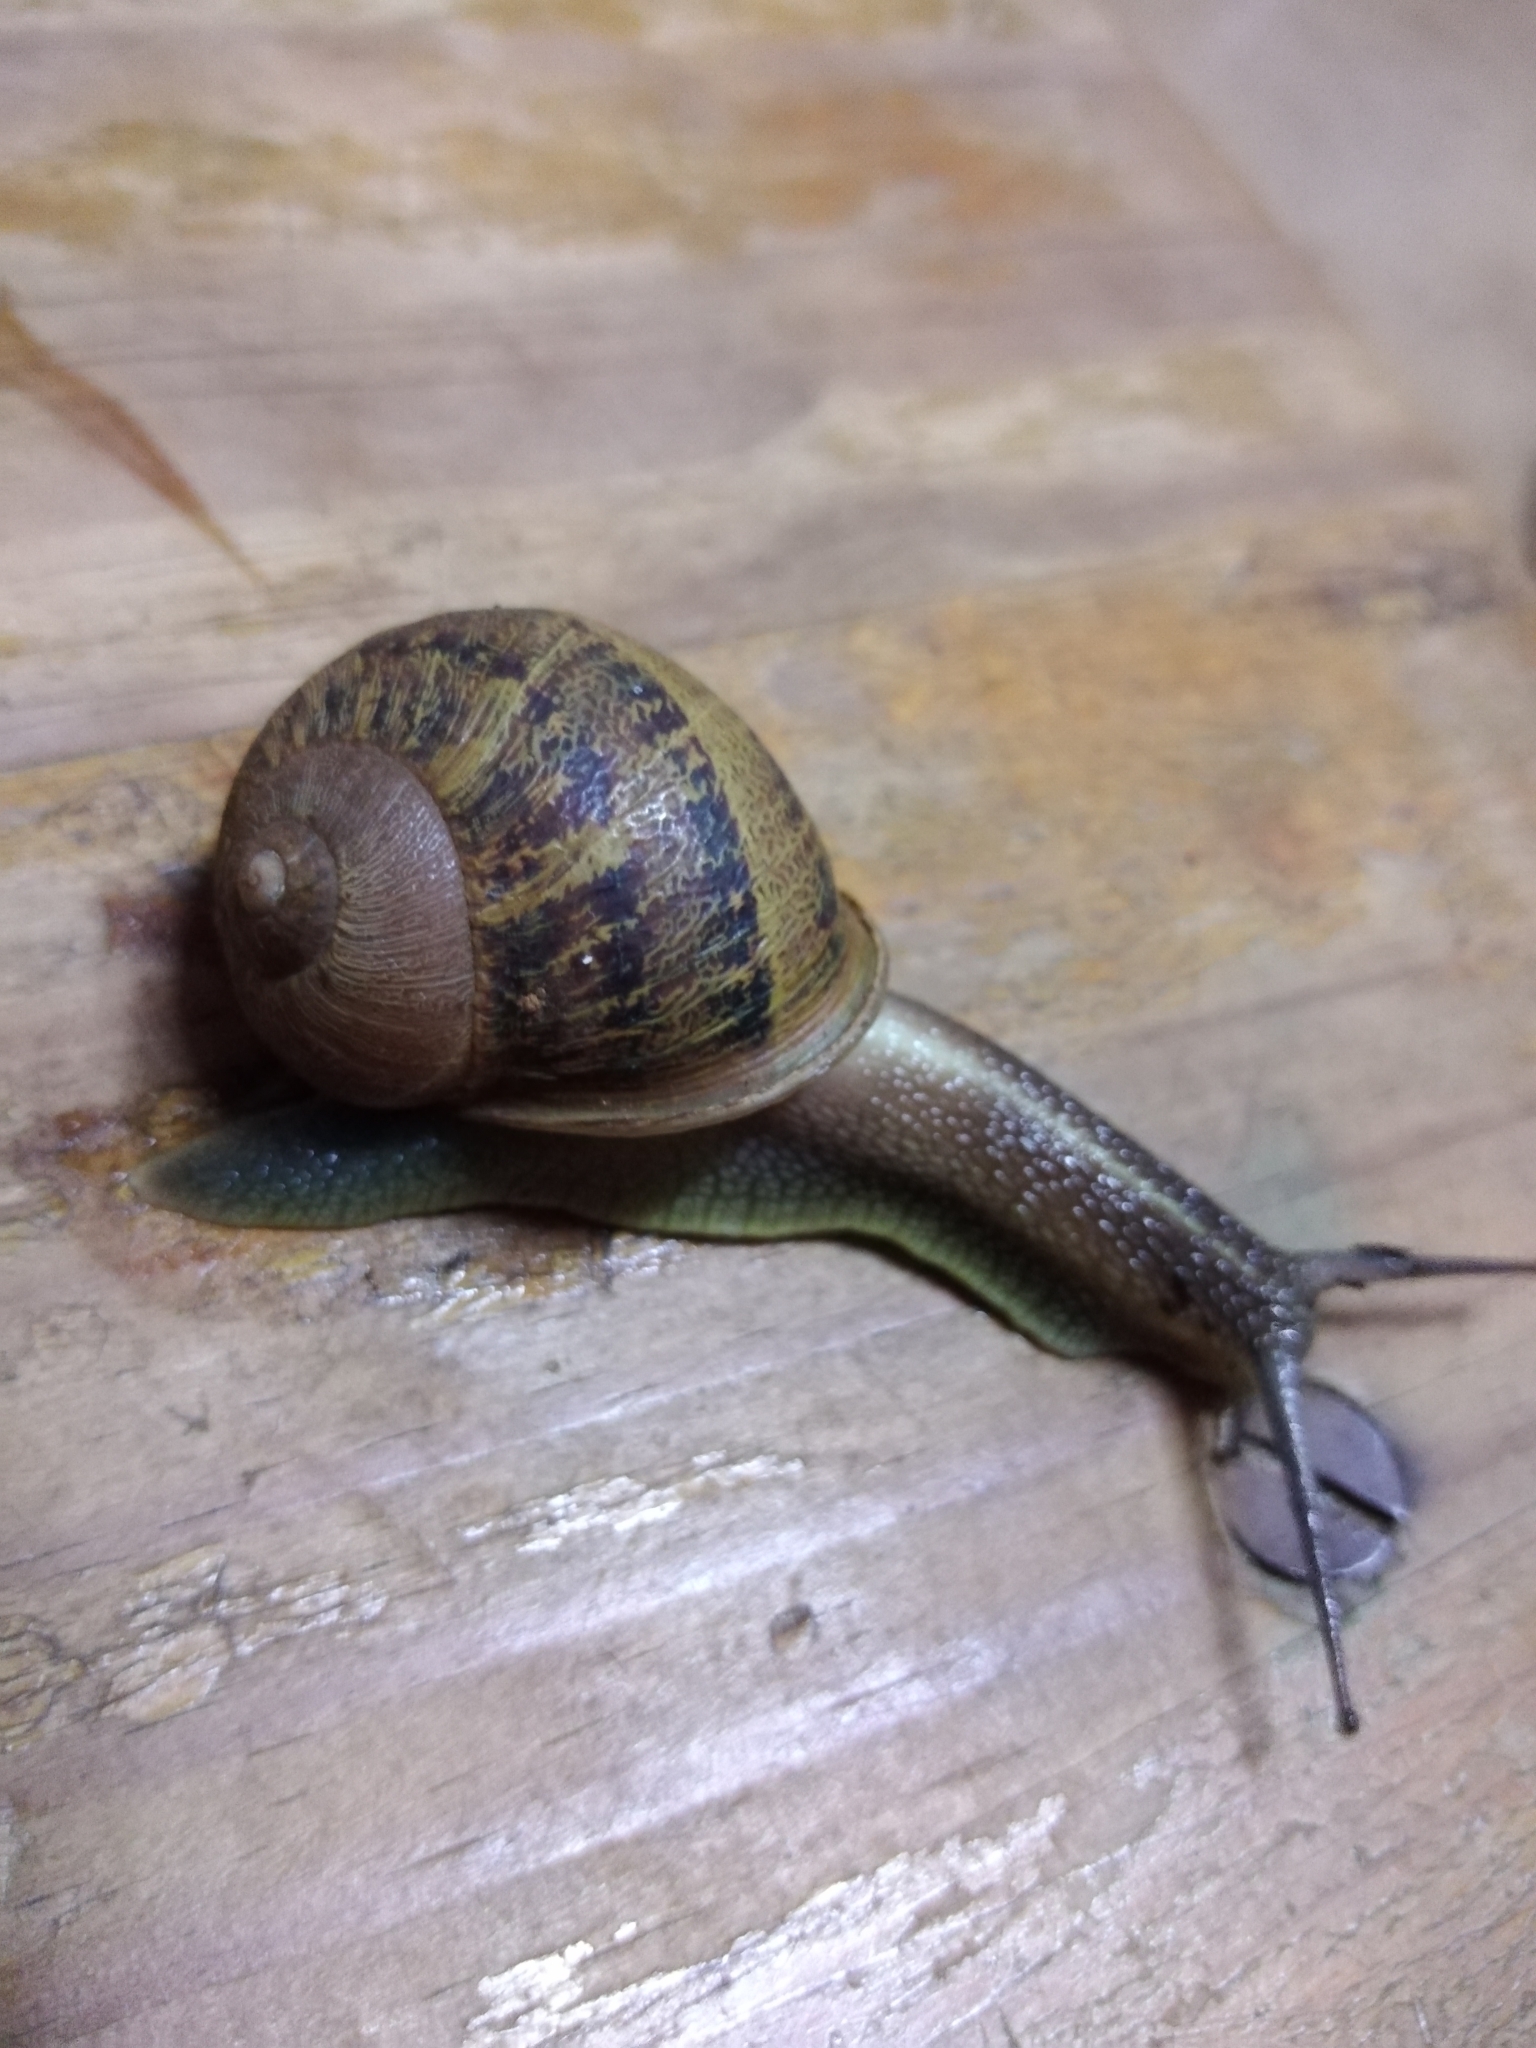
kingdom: Animalia
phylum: Mollusca
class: Gastropoda
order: Stylommatophora
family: Helicidae
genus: Cornu
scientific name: Cornu aspersum
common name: Brown garden snail
